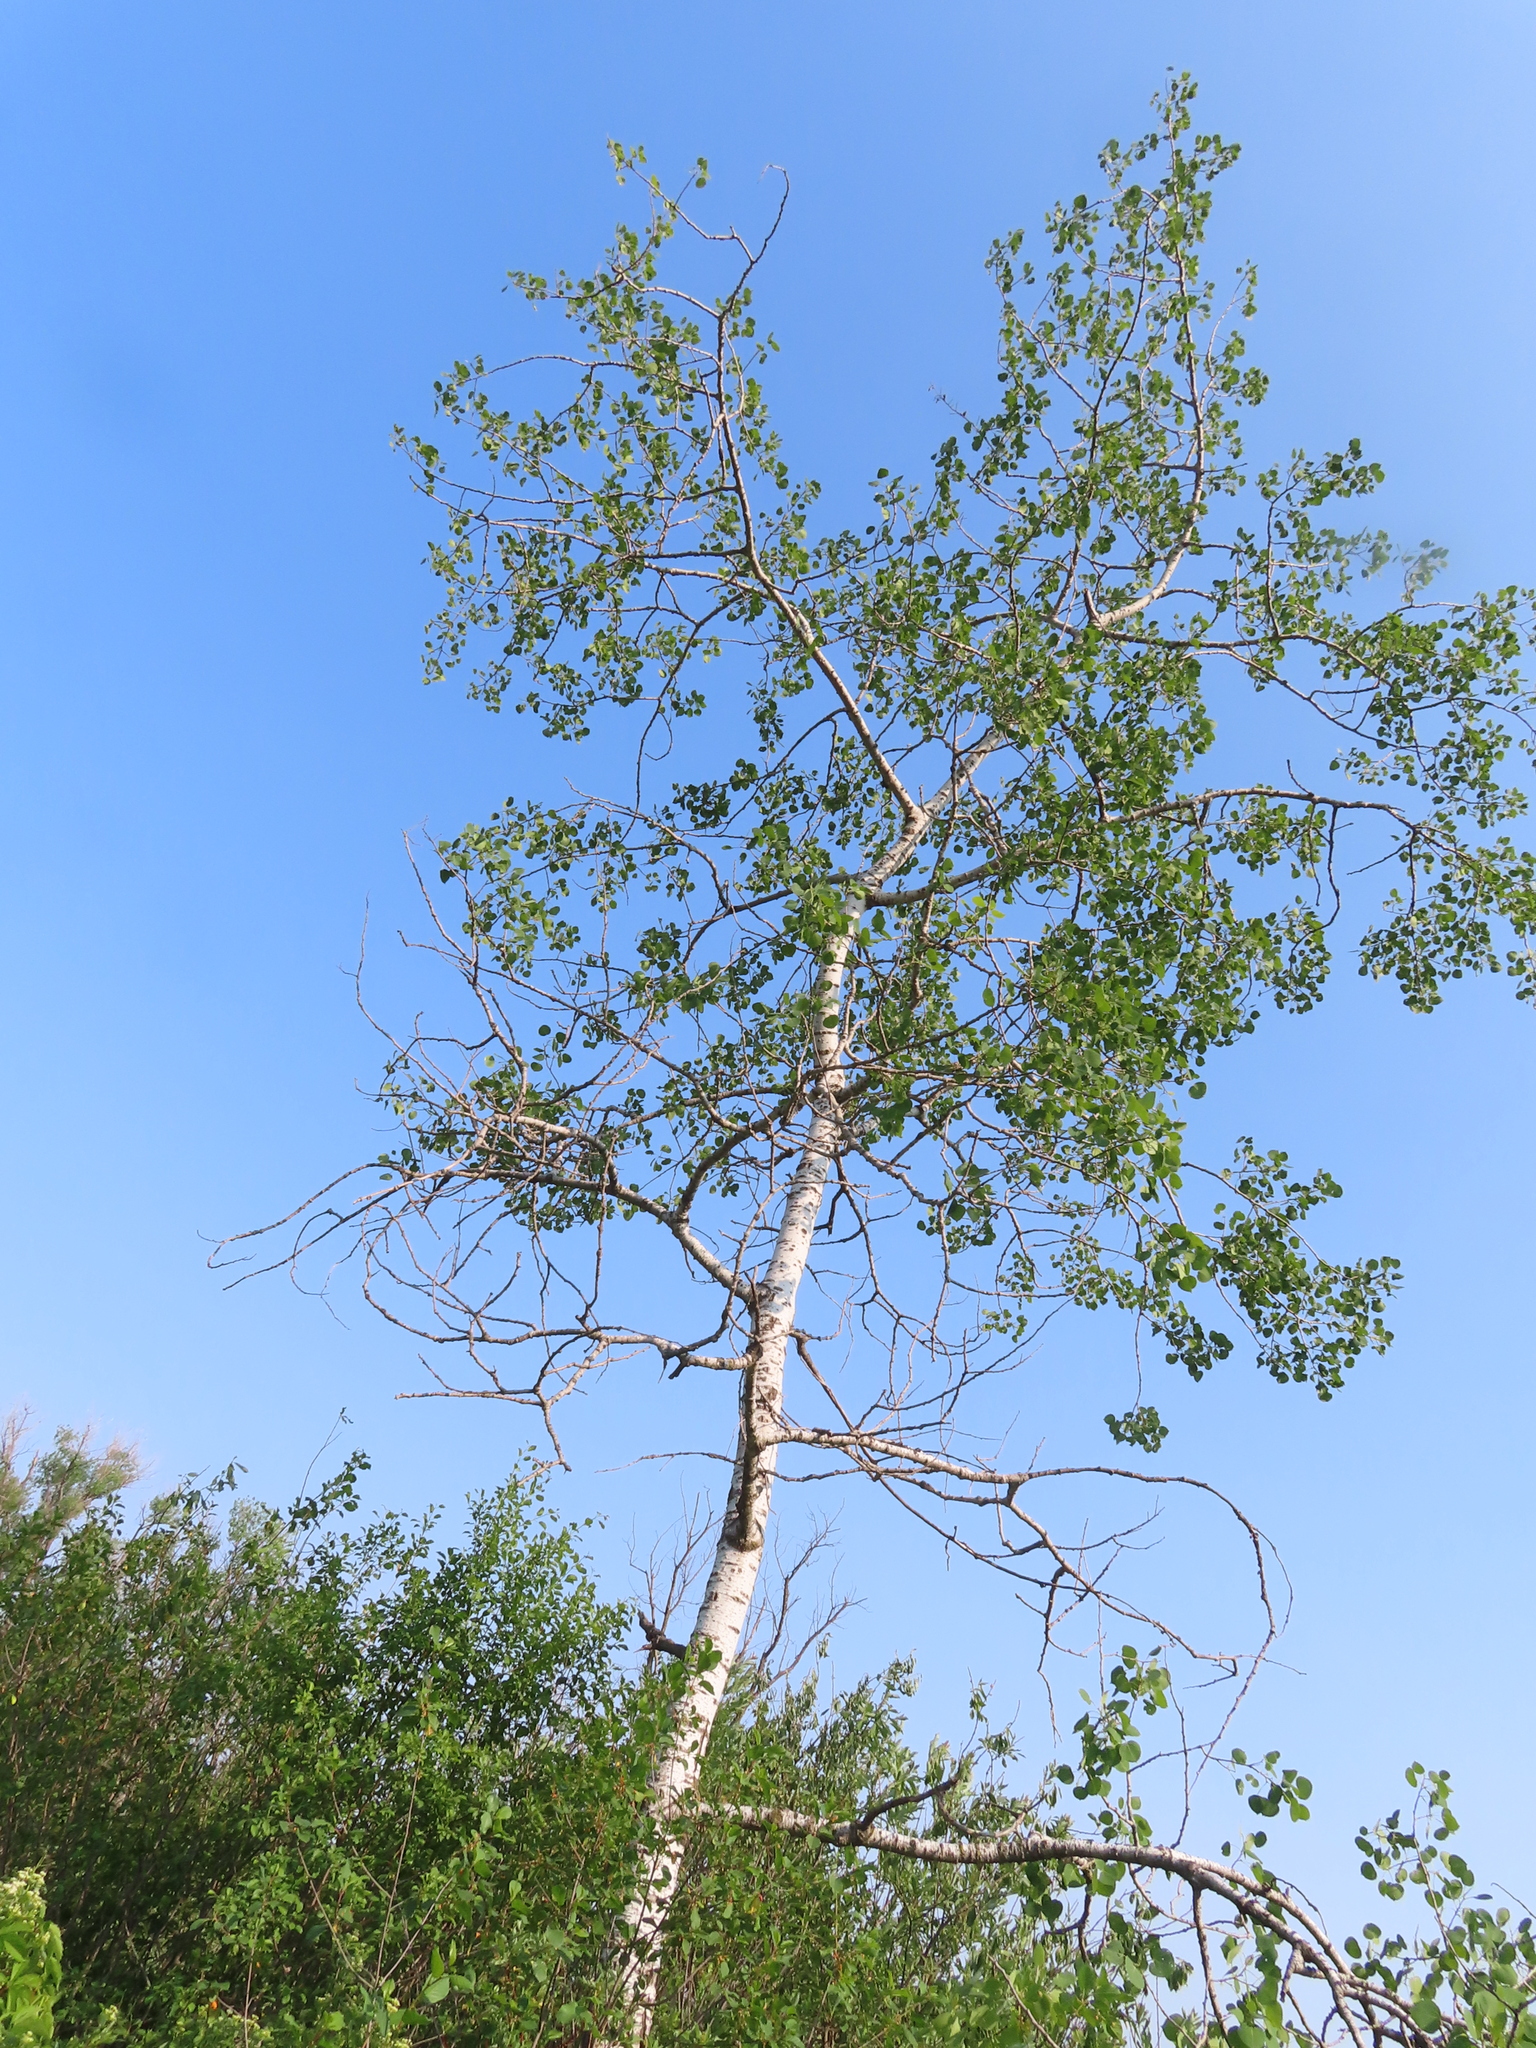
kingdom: Plantae
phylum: Tracheophyta
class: Magnoliopsida
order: Malpighiales
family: Salicaceae
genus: Populus
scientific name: Populus tremuloides
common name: Quaking aspen
